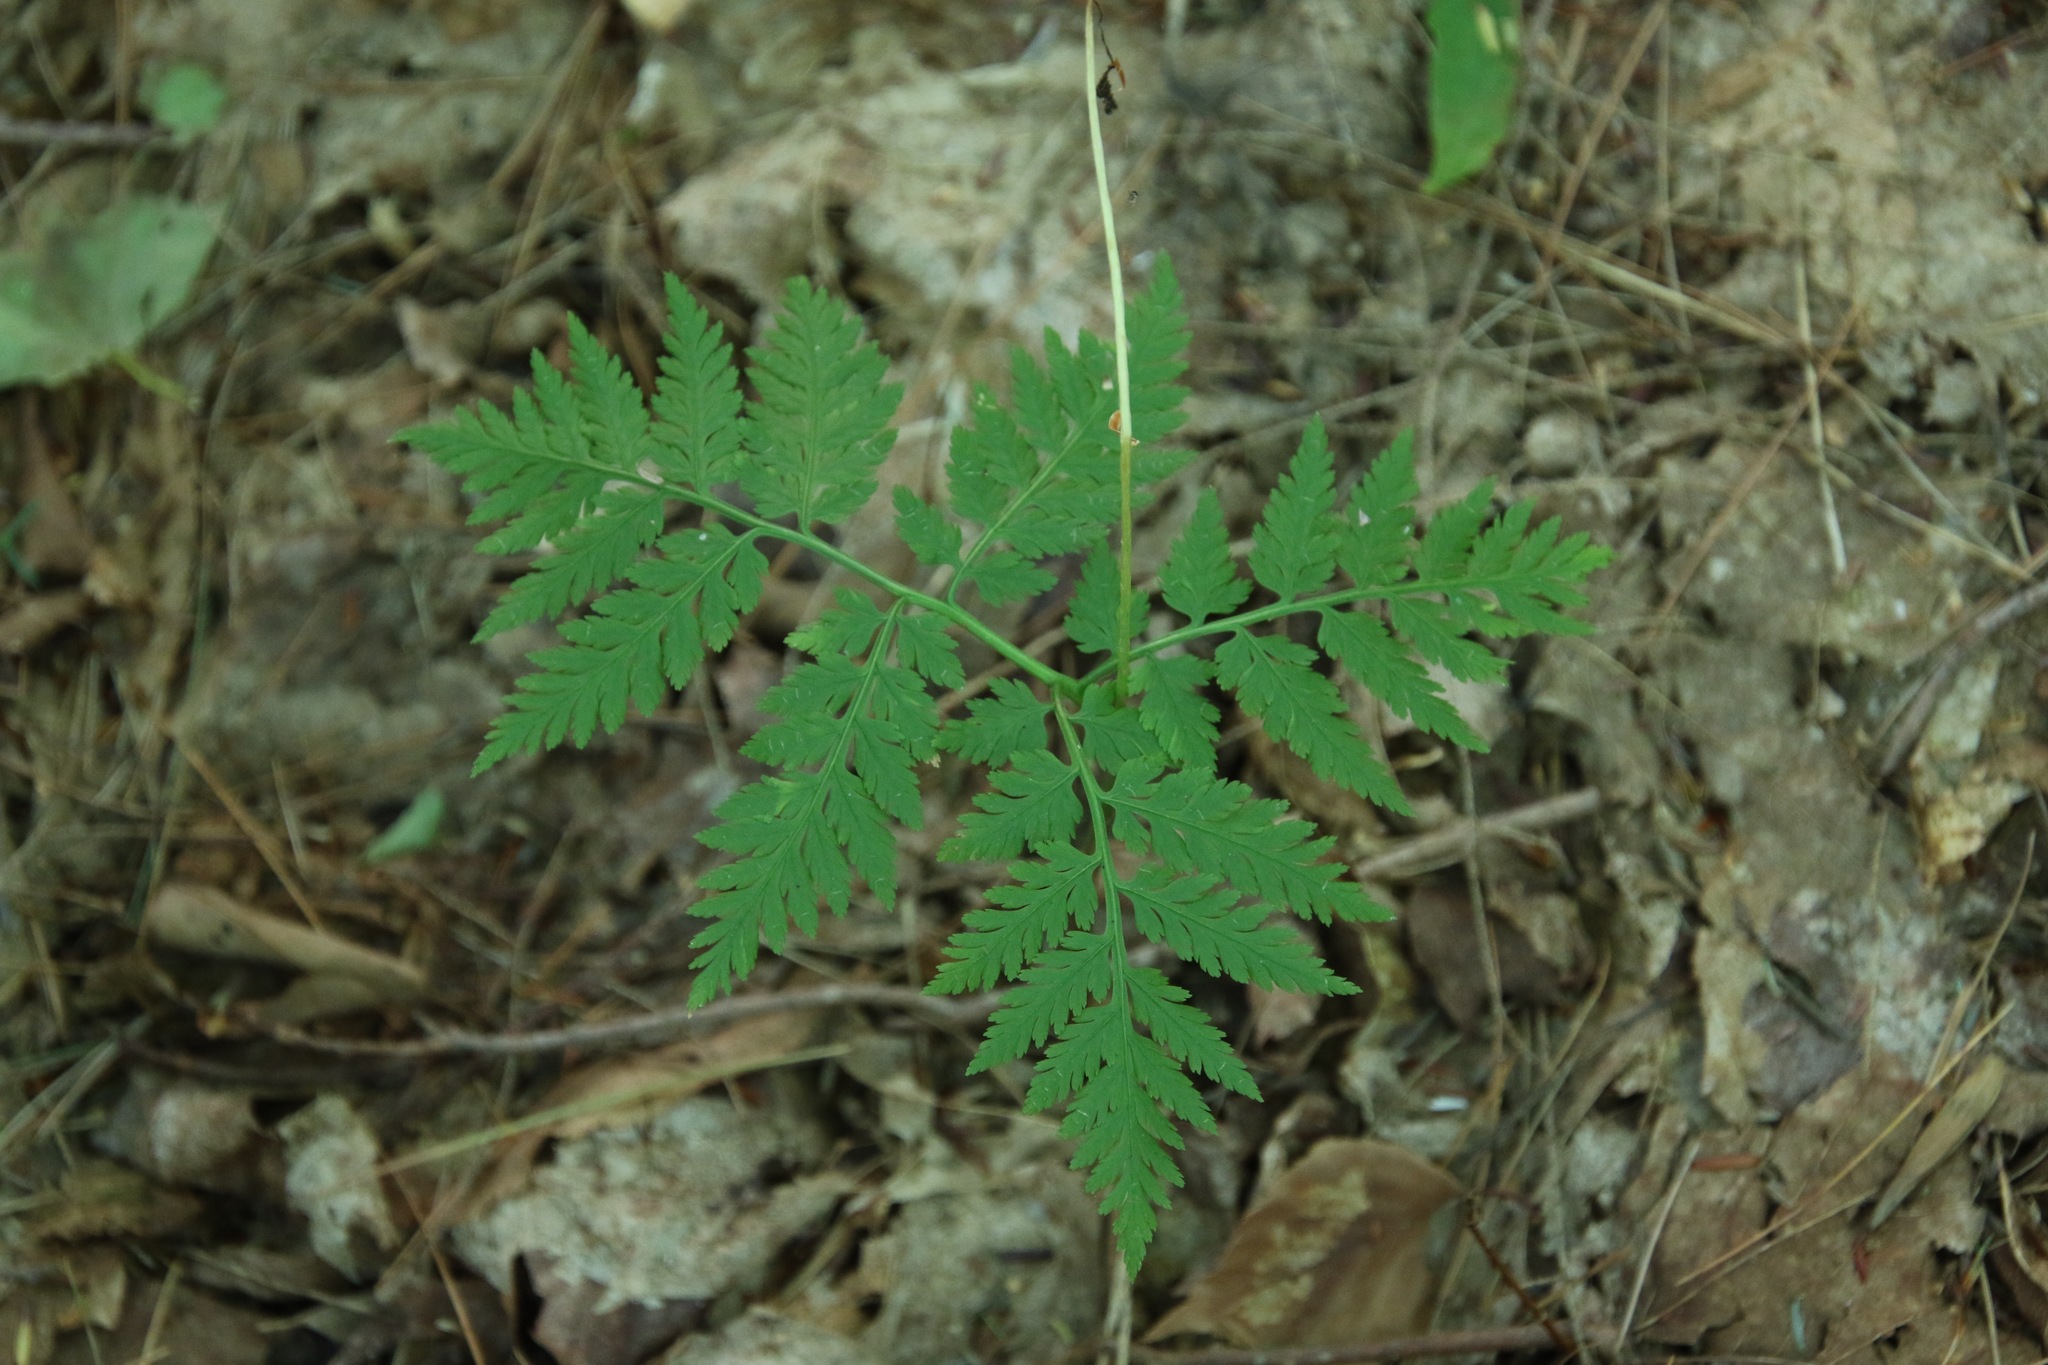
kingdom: Plantae
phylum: Tracheophyta
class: Polypodiopsida
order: Ophioglossales
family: Ophioglossaceae
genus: Botrypus
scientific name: Botrypus virginianus
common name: Common grapefern
